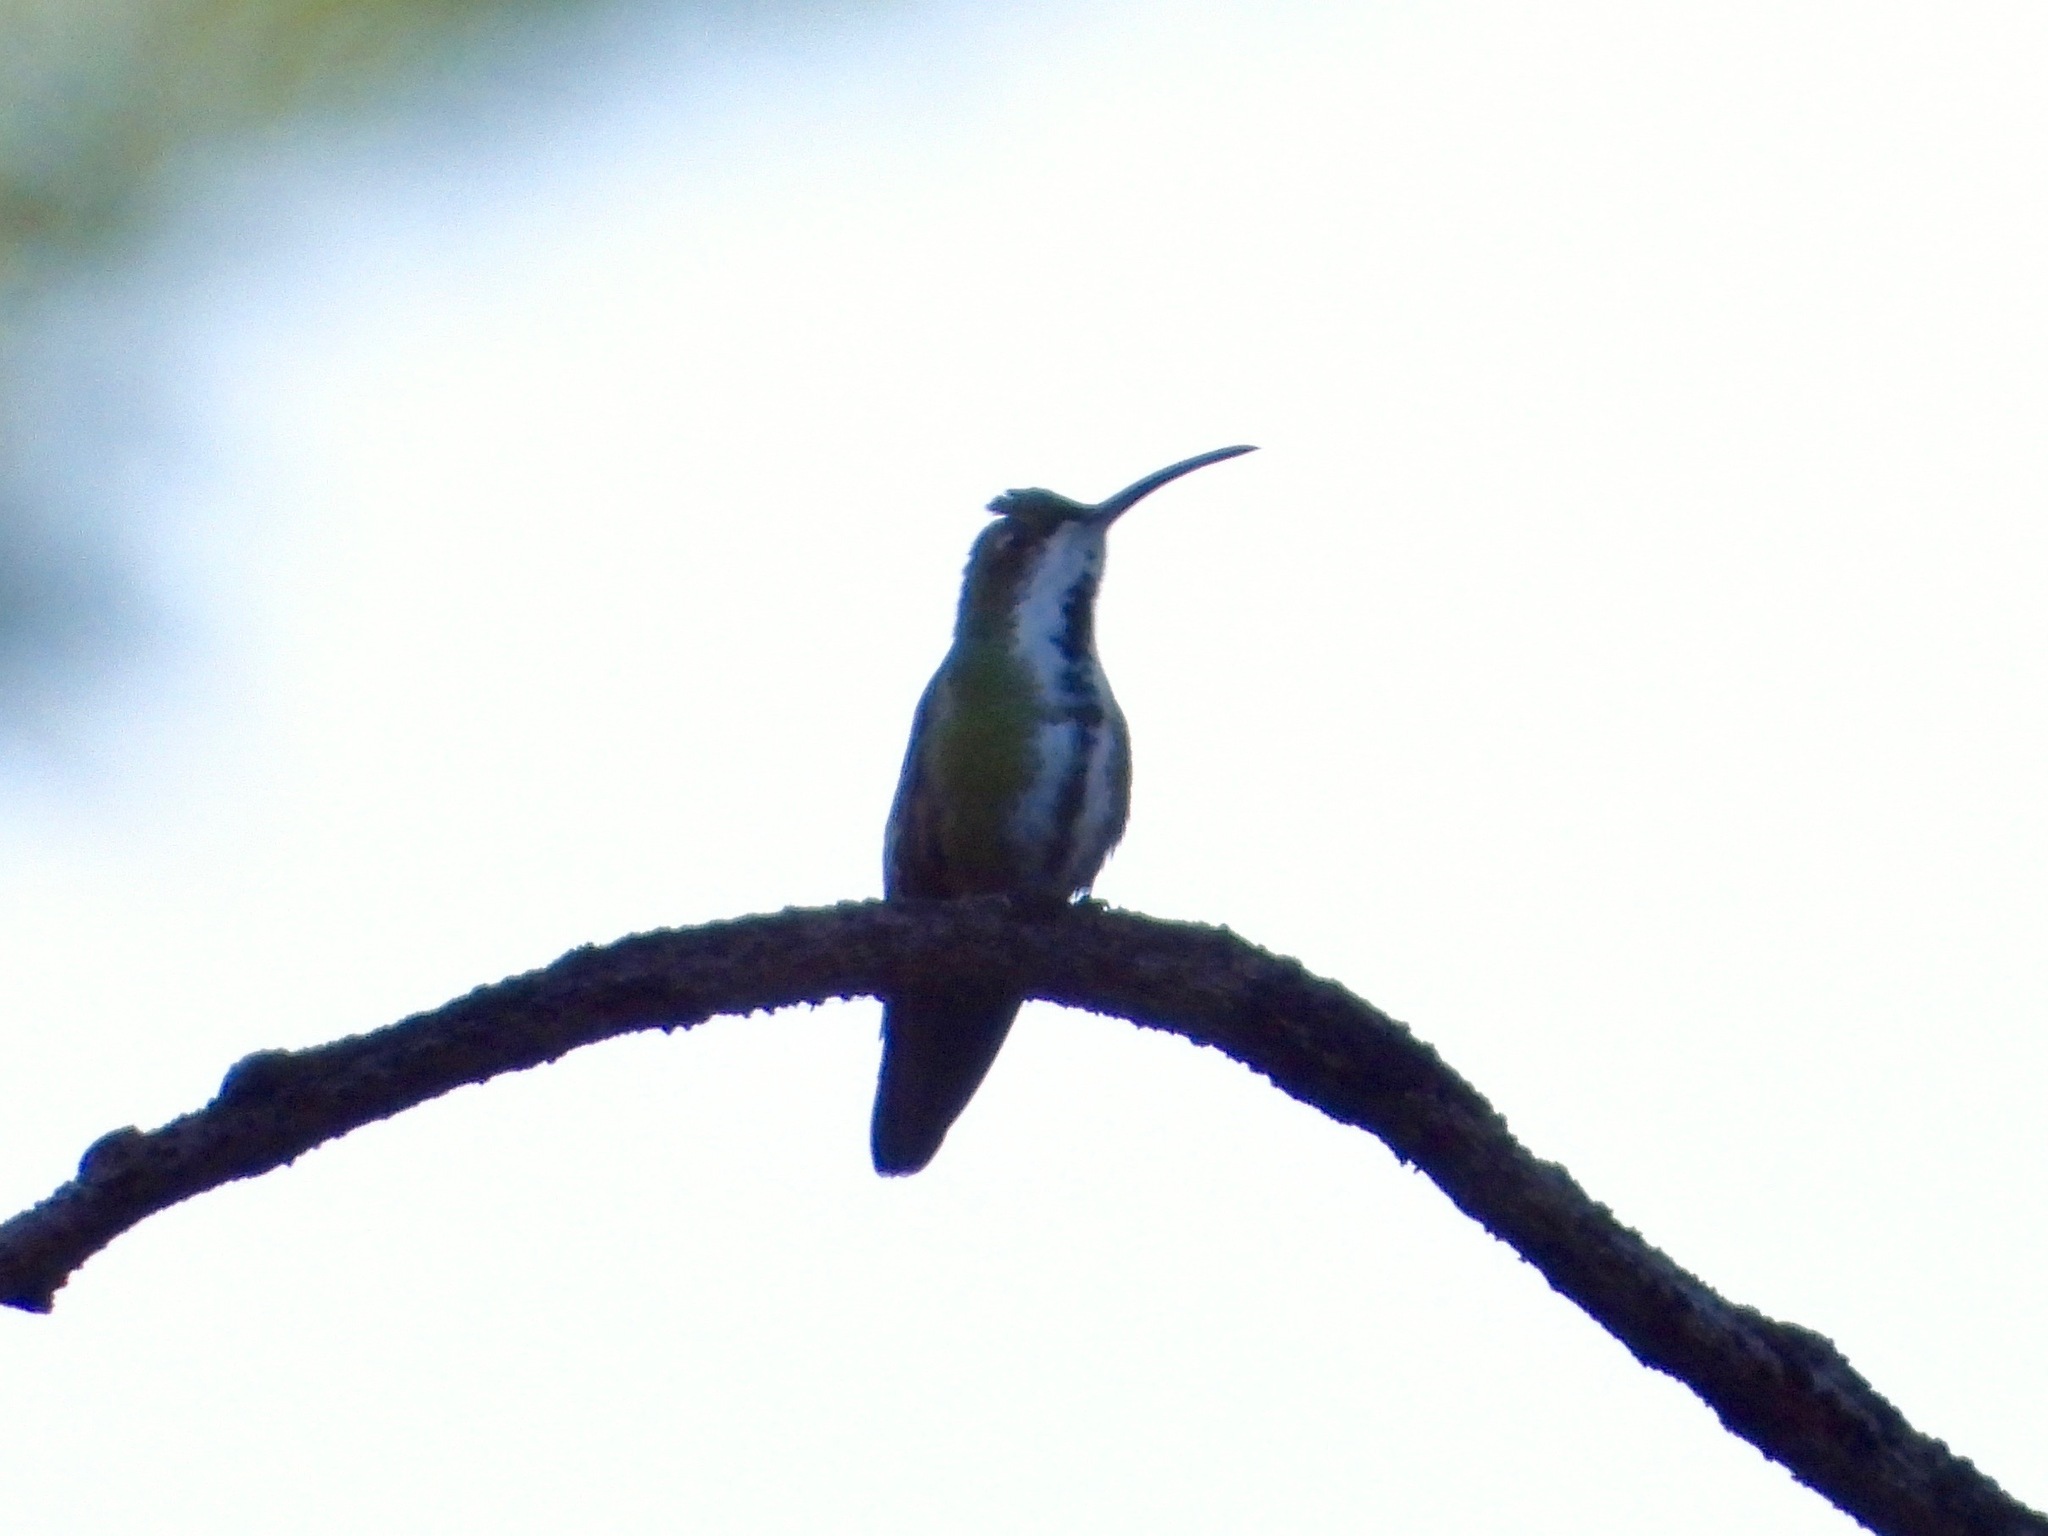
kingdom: Animalia
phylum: Chordata
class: Aves
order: Apodiformes
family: Trochilidae
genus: Anthracothorax
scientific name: Anthracothorax prevostii
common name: Green-breasted mango
